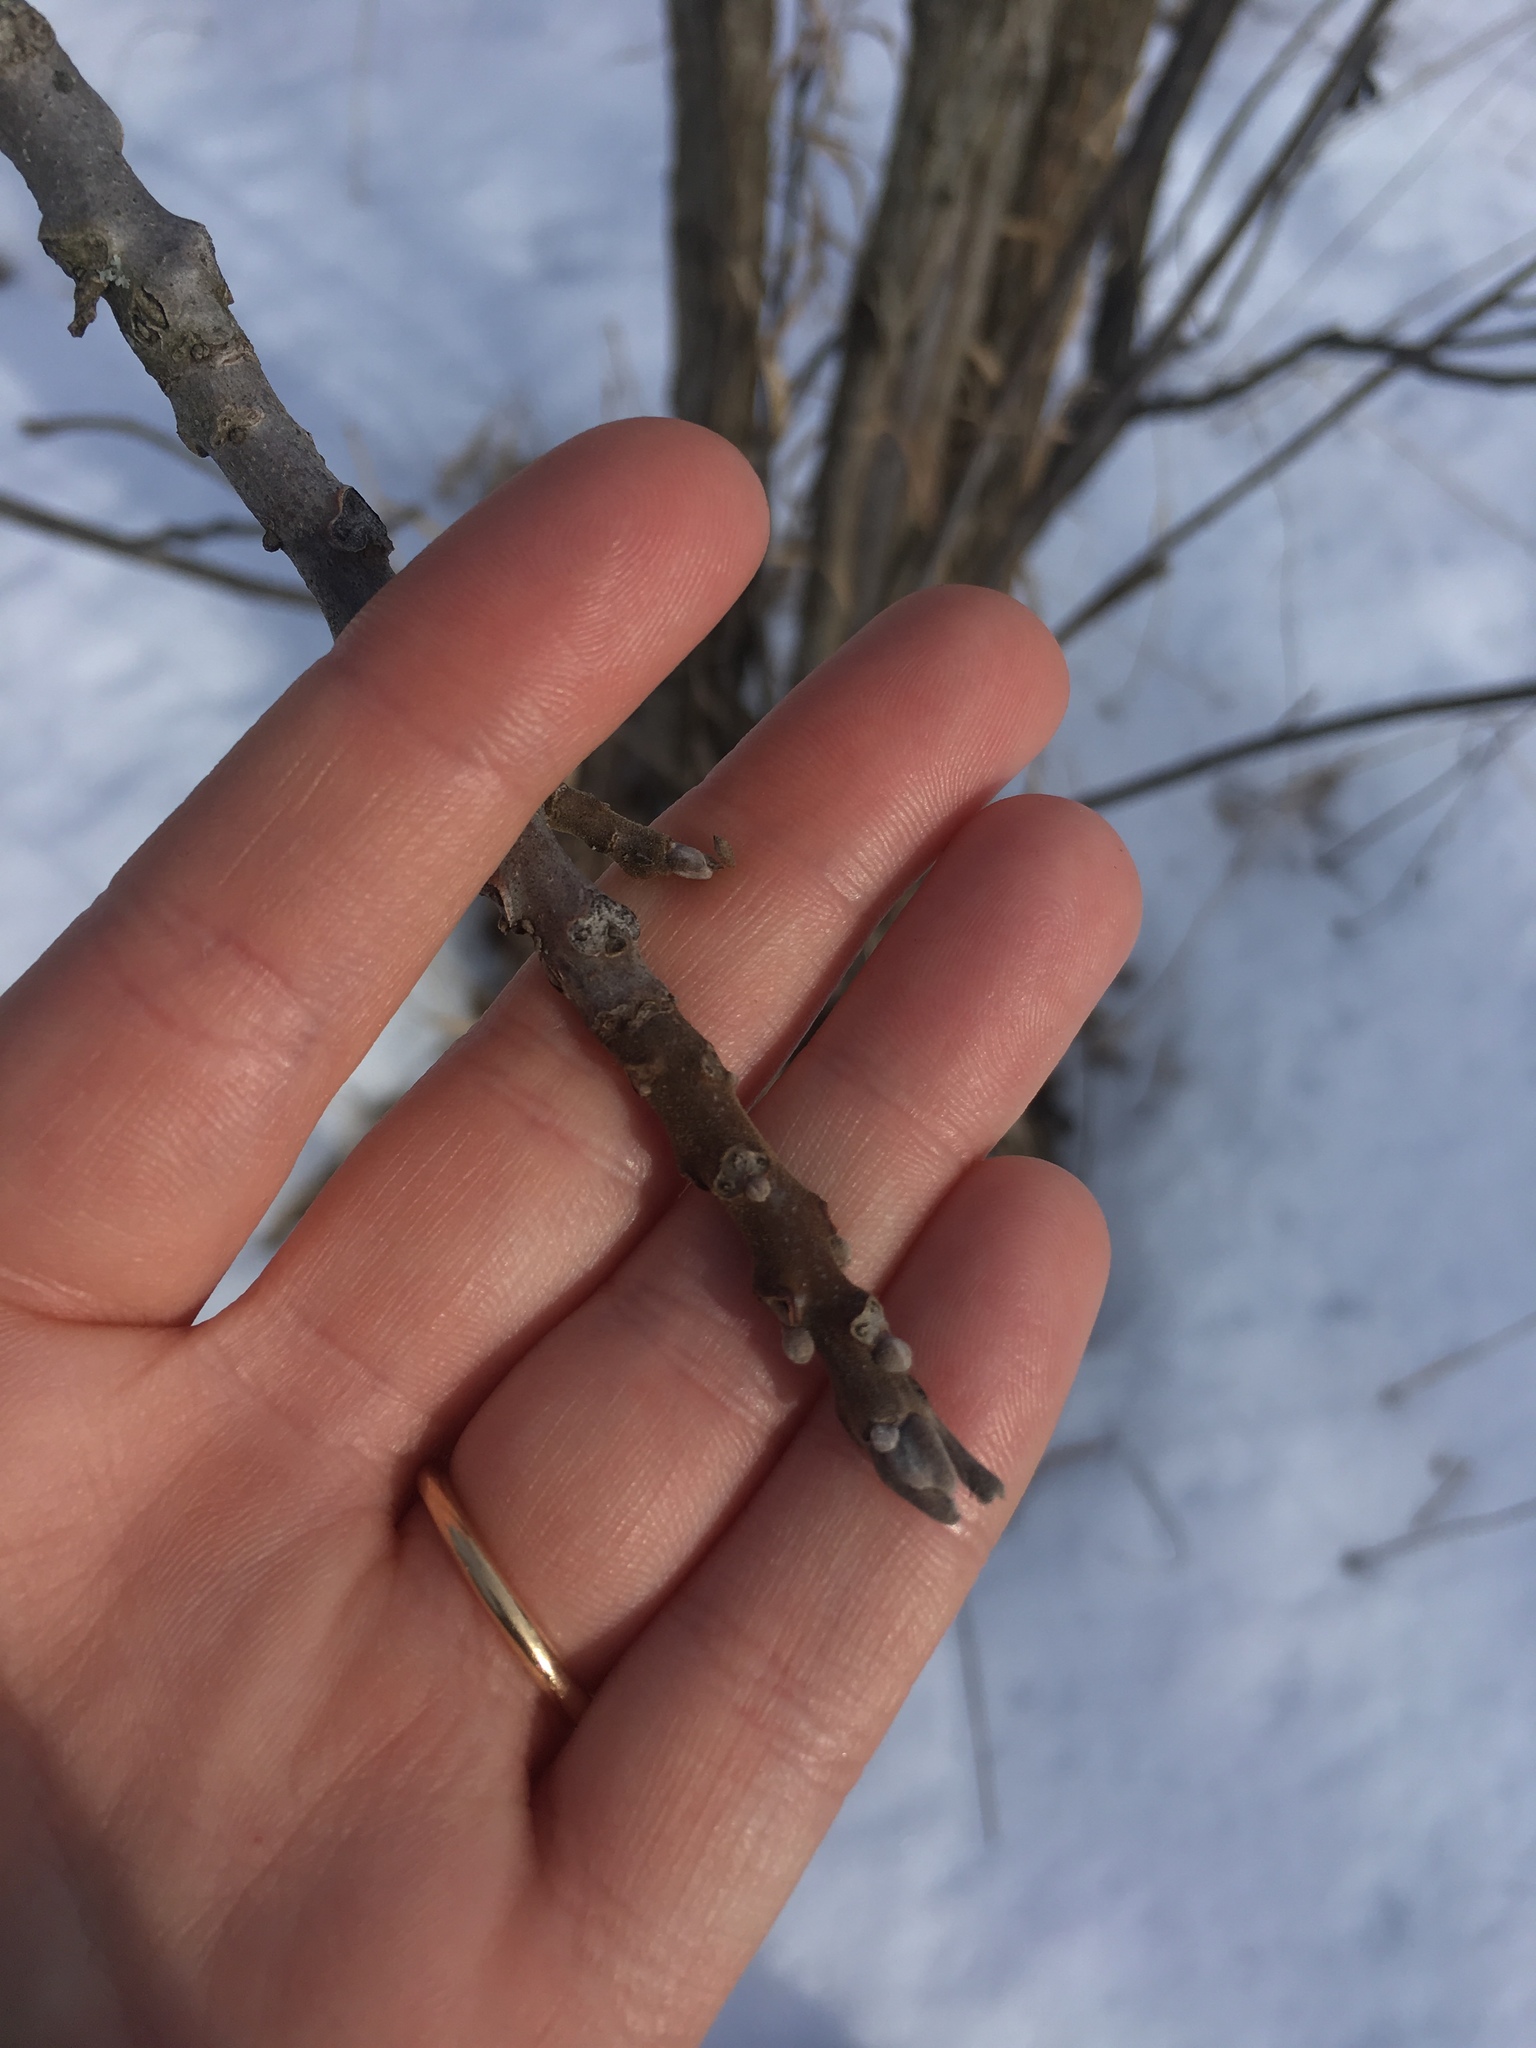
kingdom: Plantae
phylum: Tracheophyta
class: Magnoliopsida
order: Fagales
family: Juglandaceae
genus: Juglans
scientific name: Juglans nigra
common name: Black walnut
